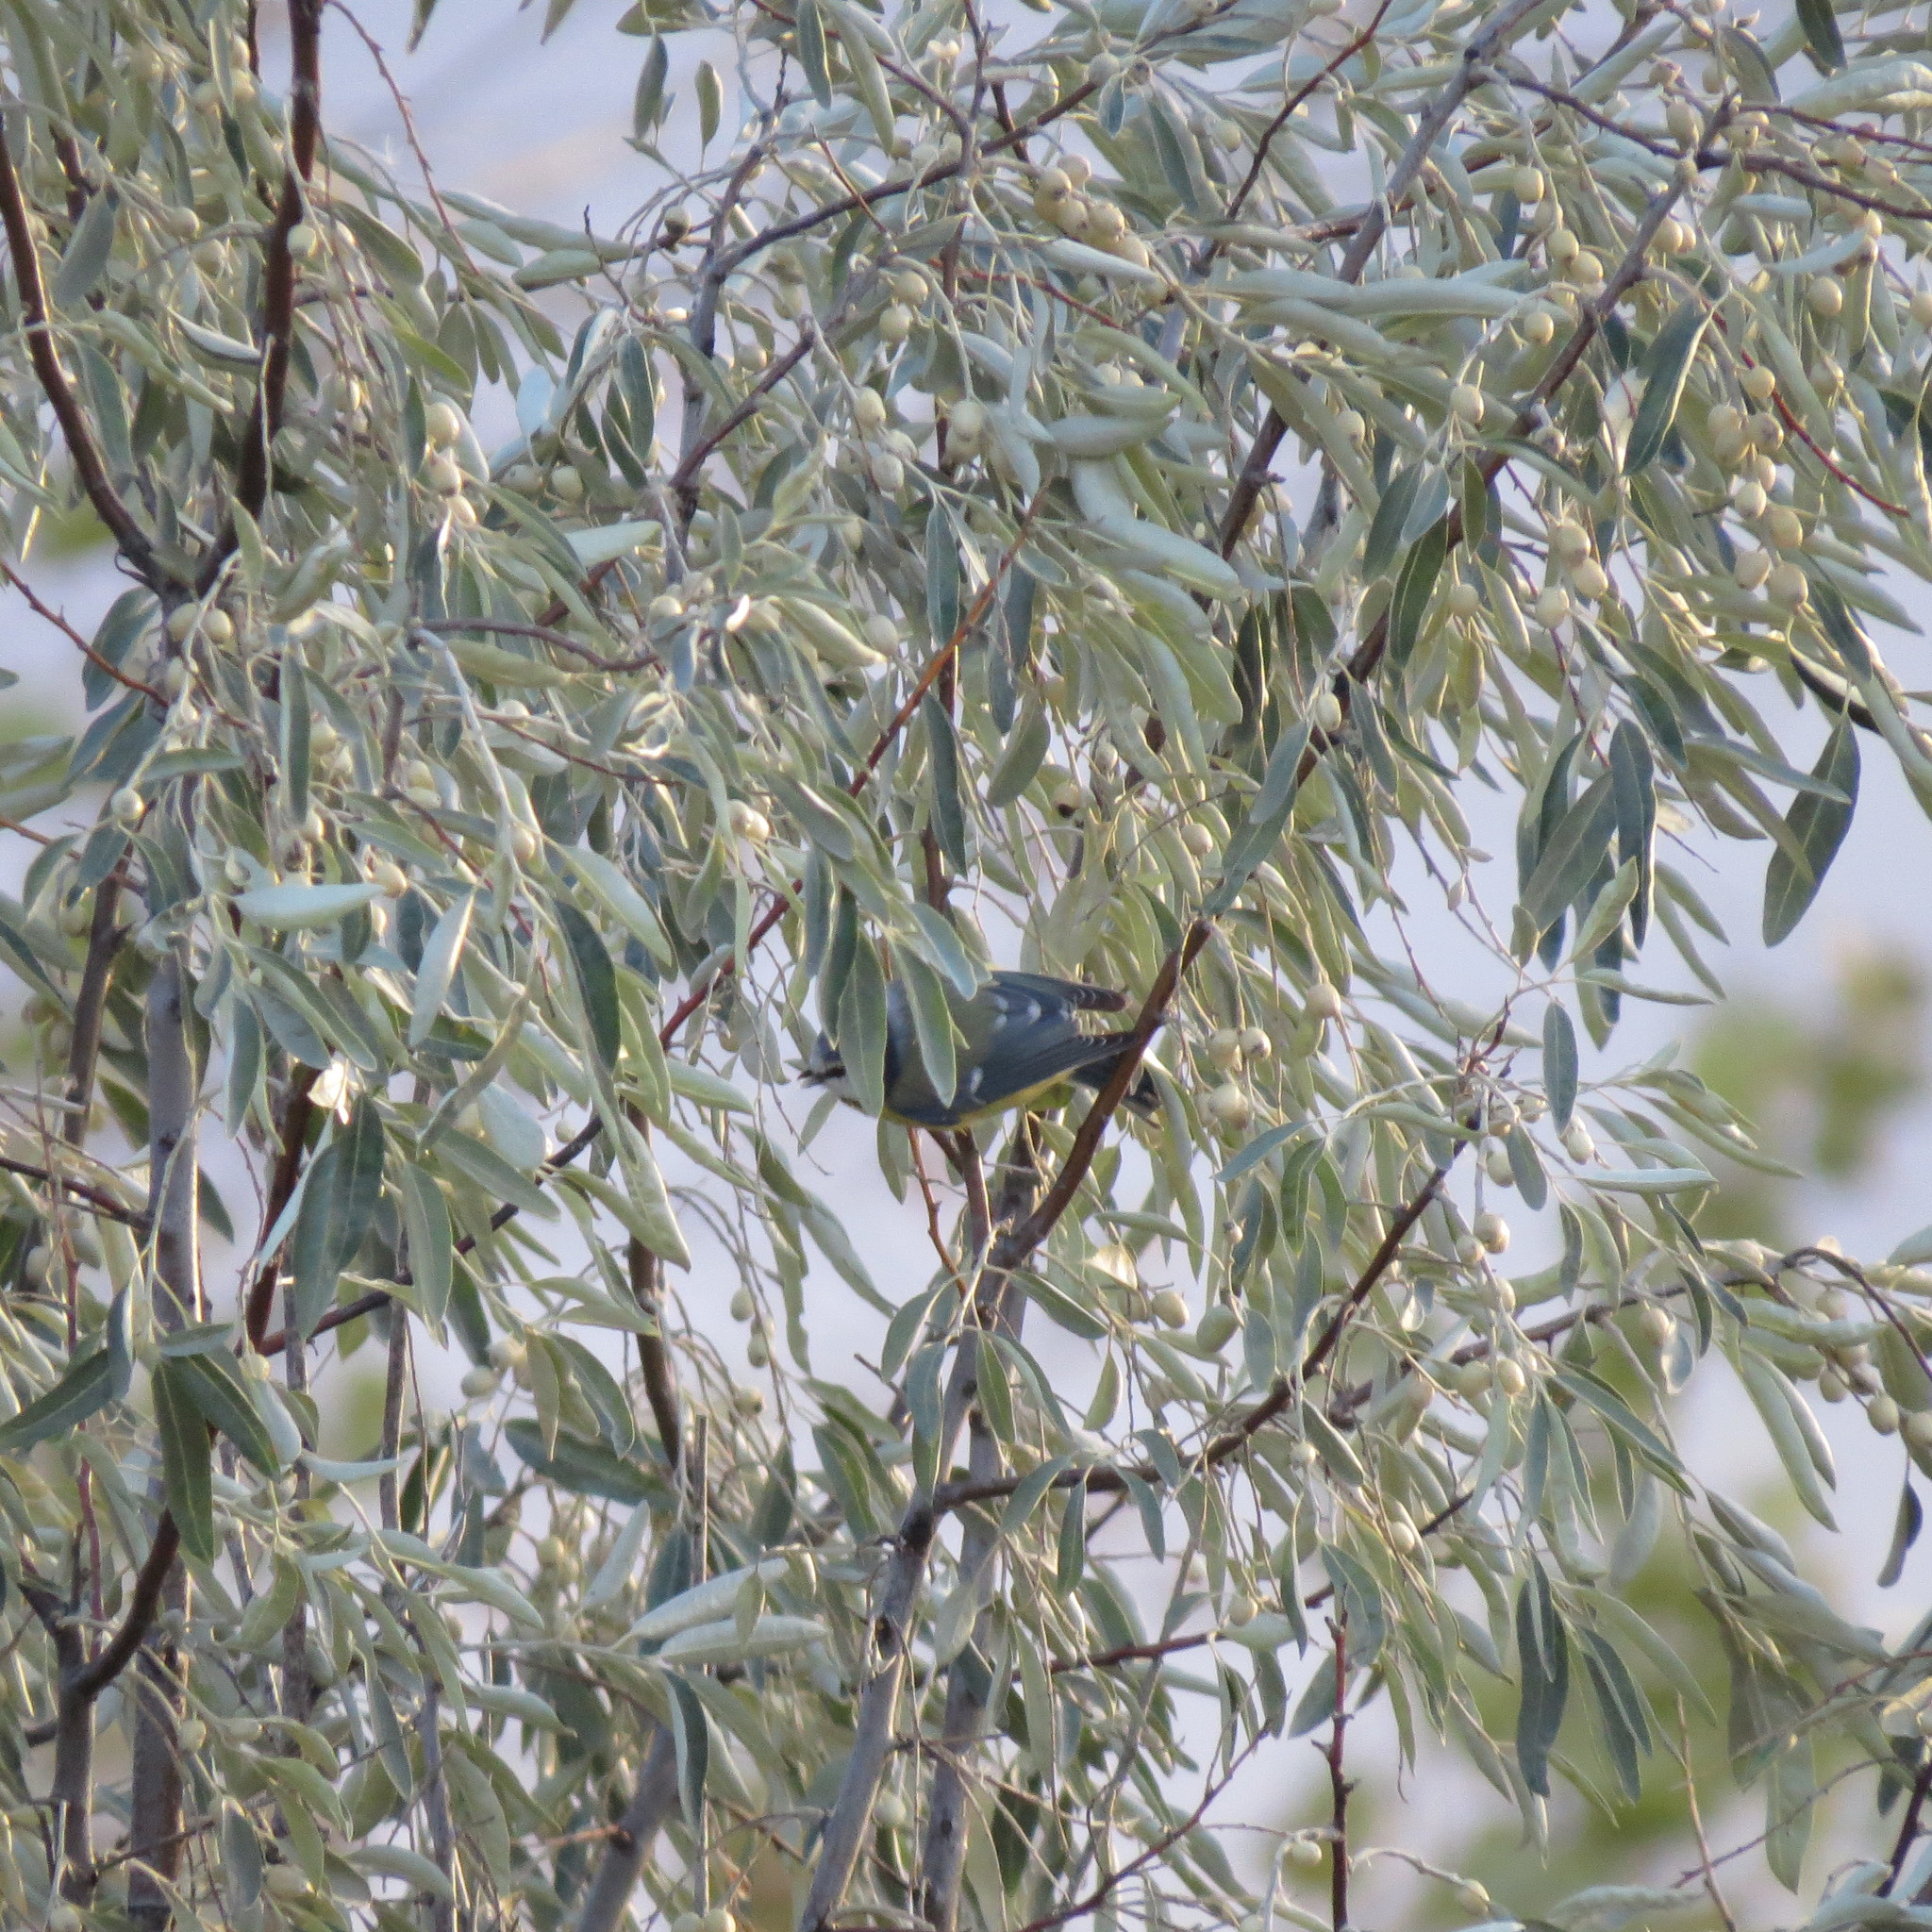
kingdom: Animalia
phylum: Chordata
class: Aves
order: Passeriformes
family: Paridae
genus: Cyanistes
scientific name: Cyanistes caeruleus
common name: Eurasian blue tit
